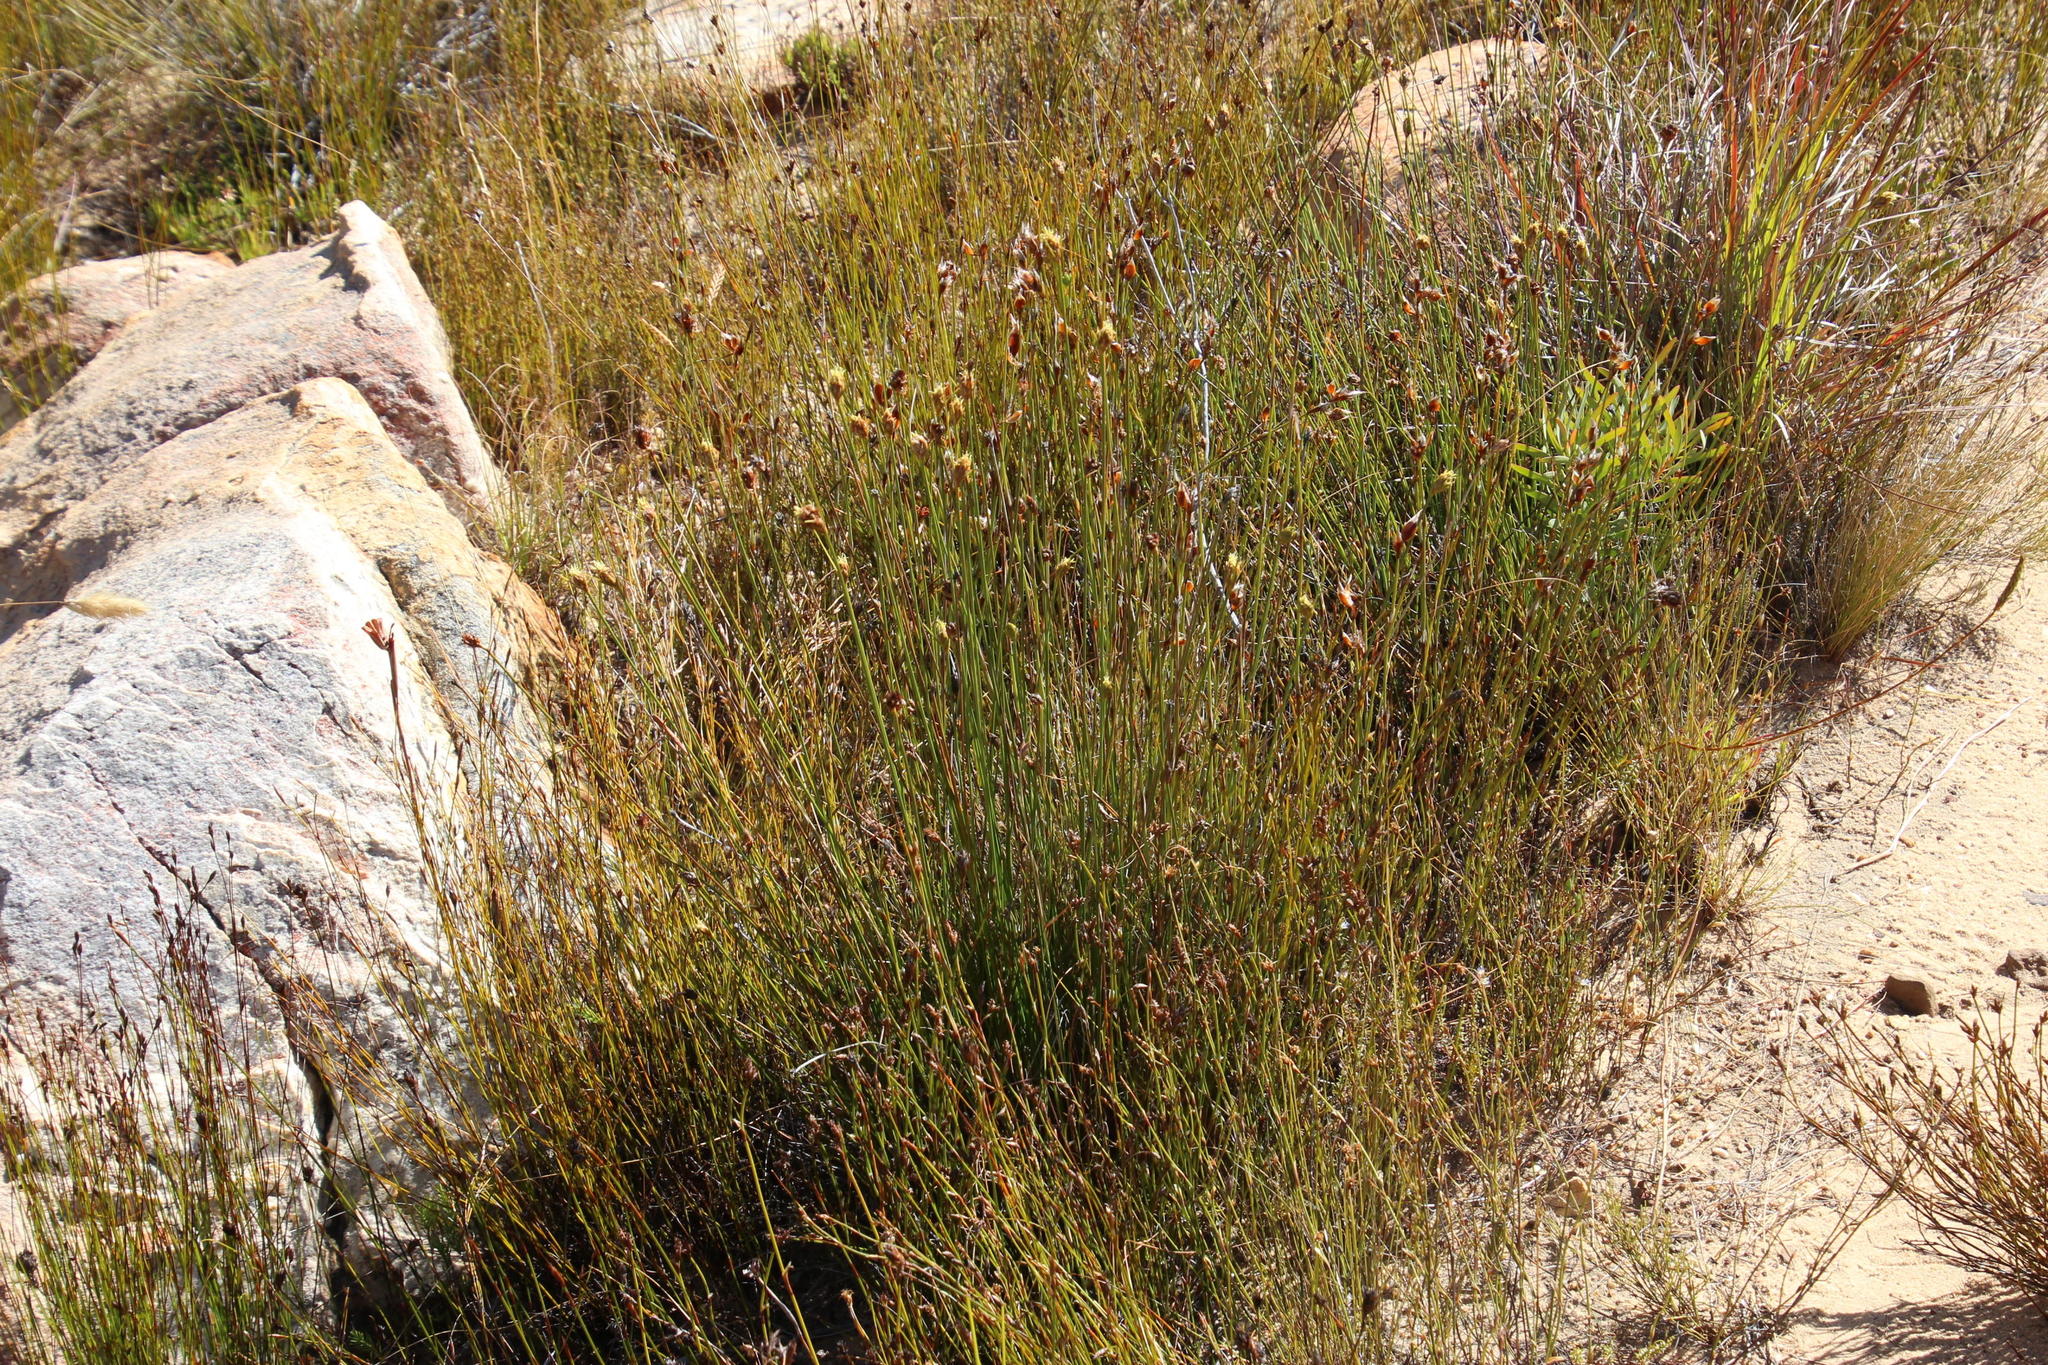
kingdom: Plantae
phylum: Tracheophyta
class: Liliopsida
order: Poales
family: Cyperaceae
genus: Ficinia
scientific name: Ficinia cedarbergensis
